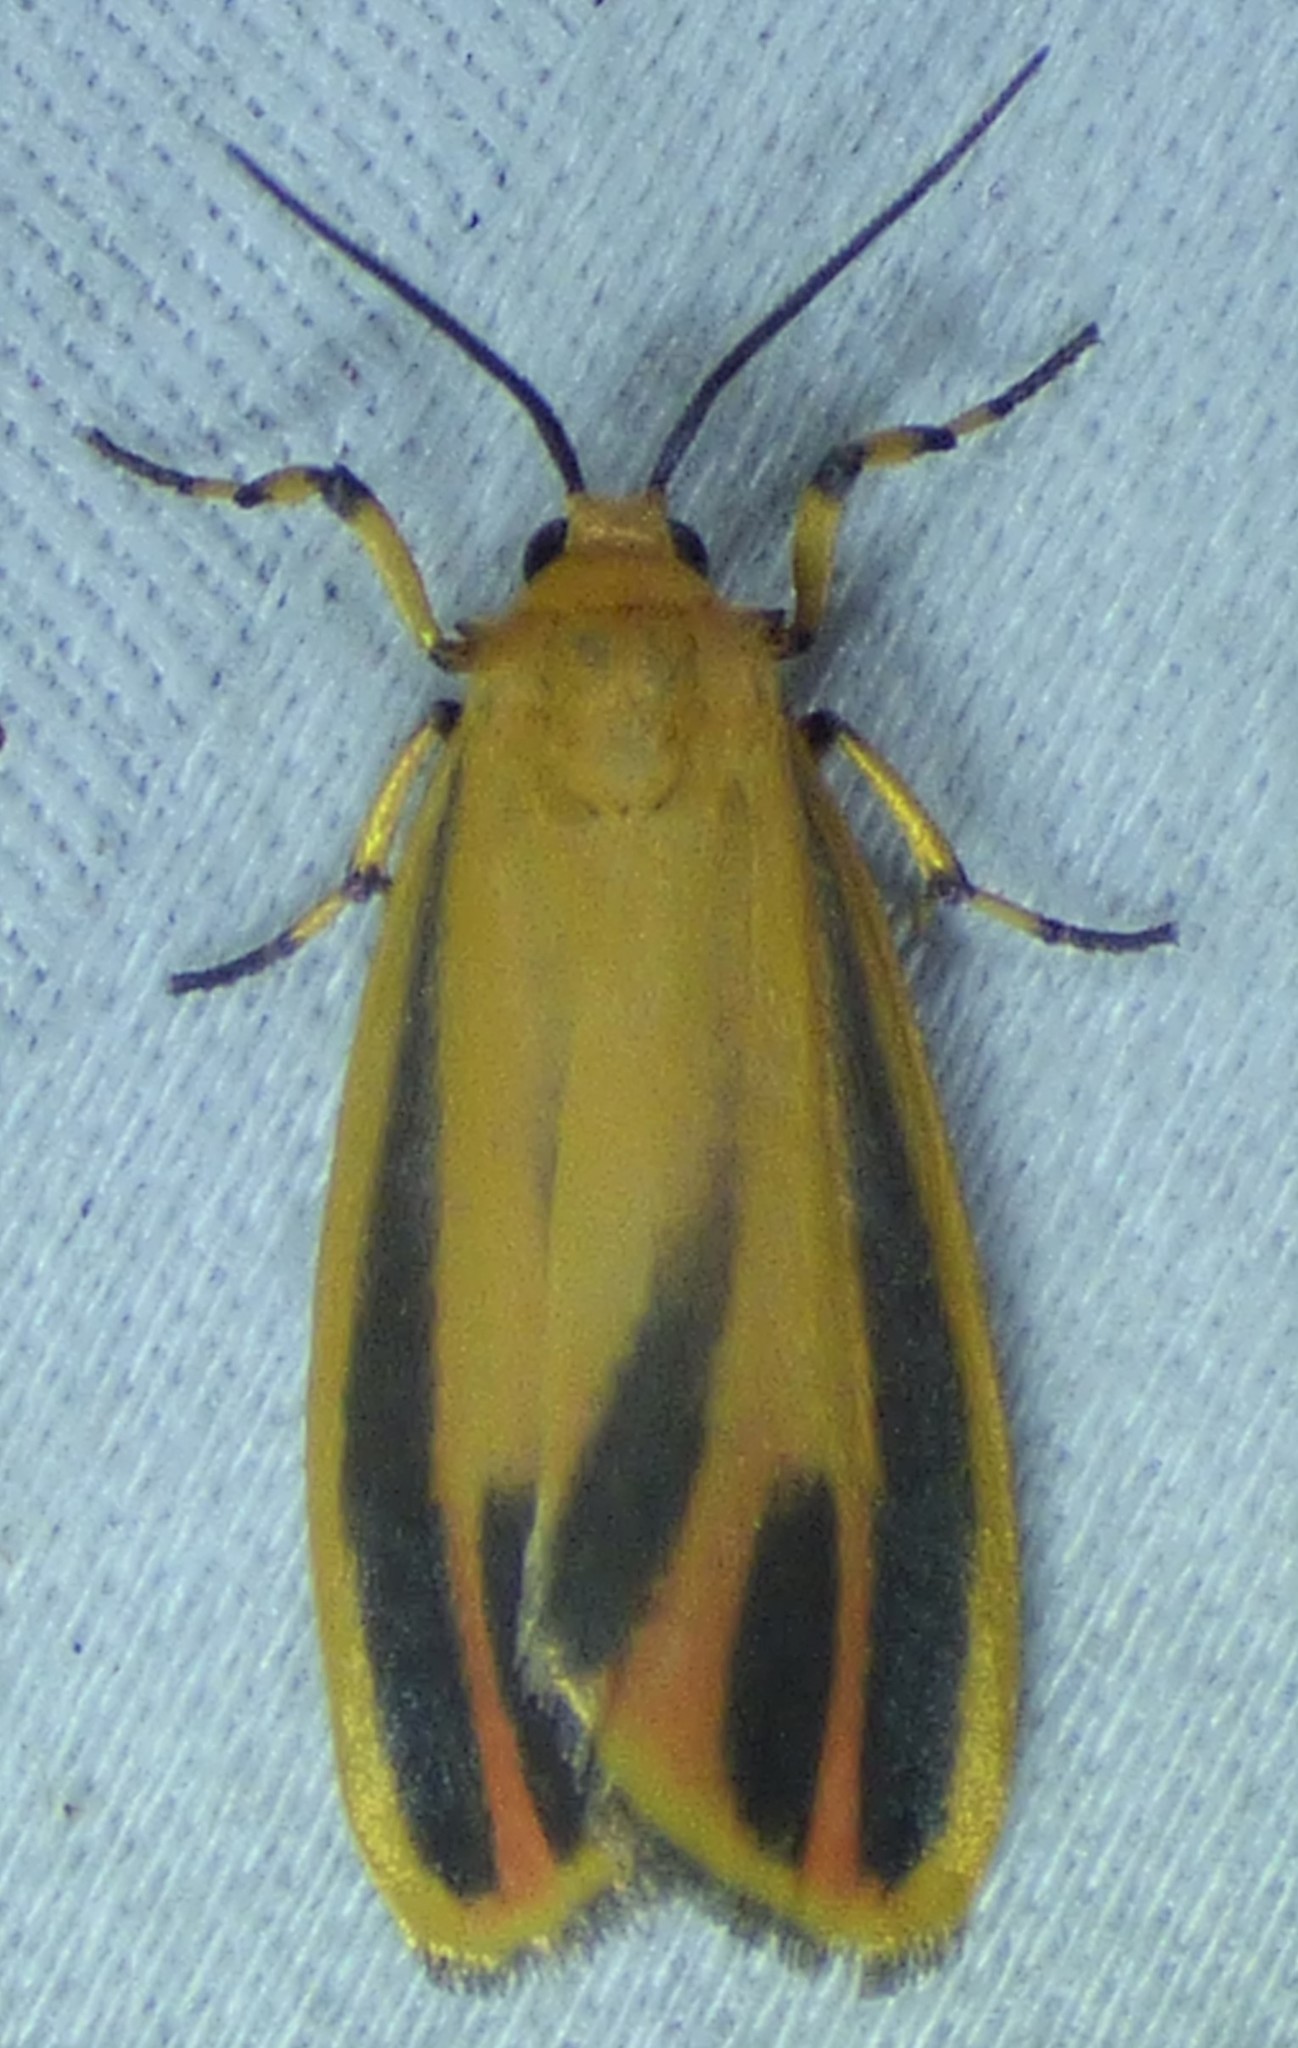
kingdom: Animalia
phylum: Arthropoda
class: Insecta
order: Lepidoptera
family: Erebidae
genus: Hypoprepia
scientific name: Hypoprepia fucosa
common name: Painted lichen moth
